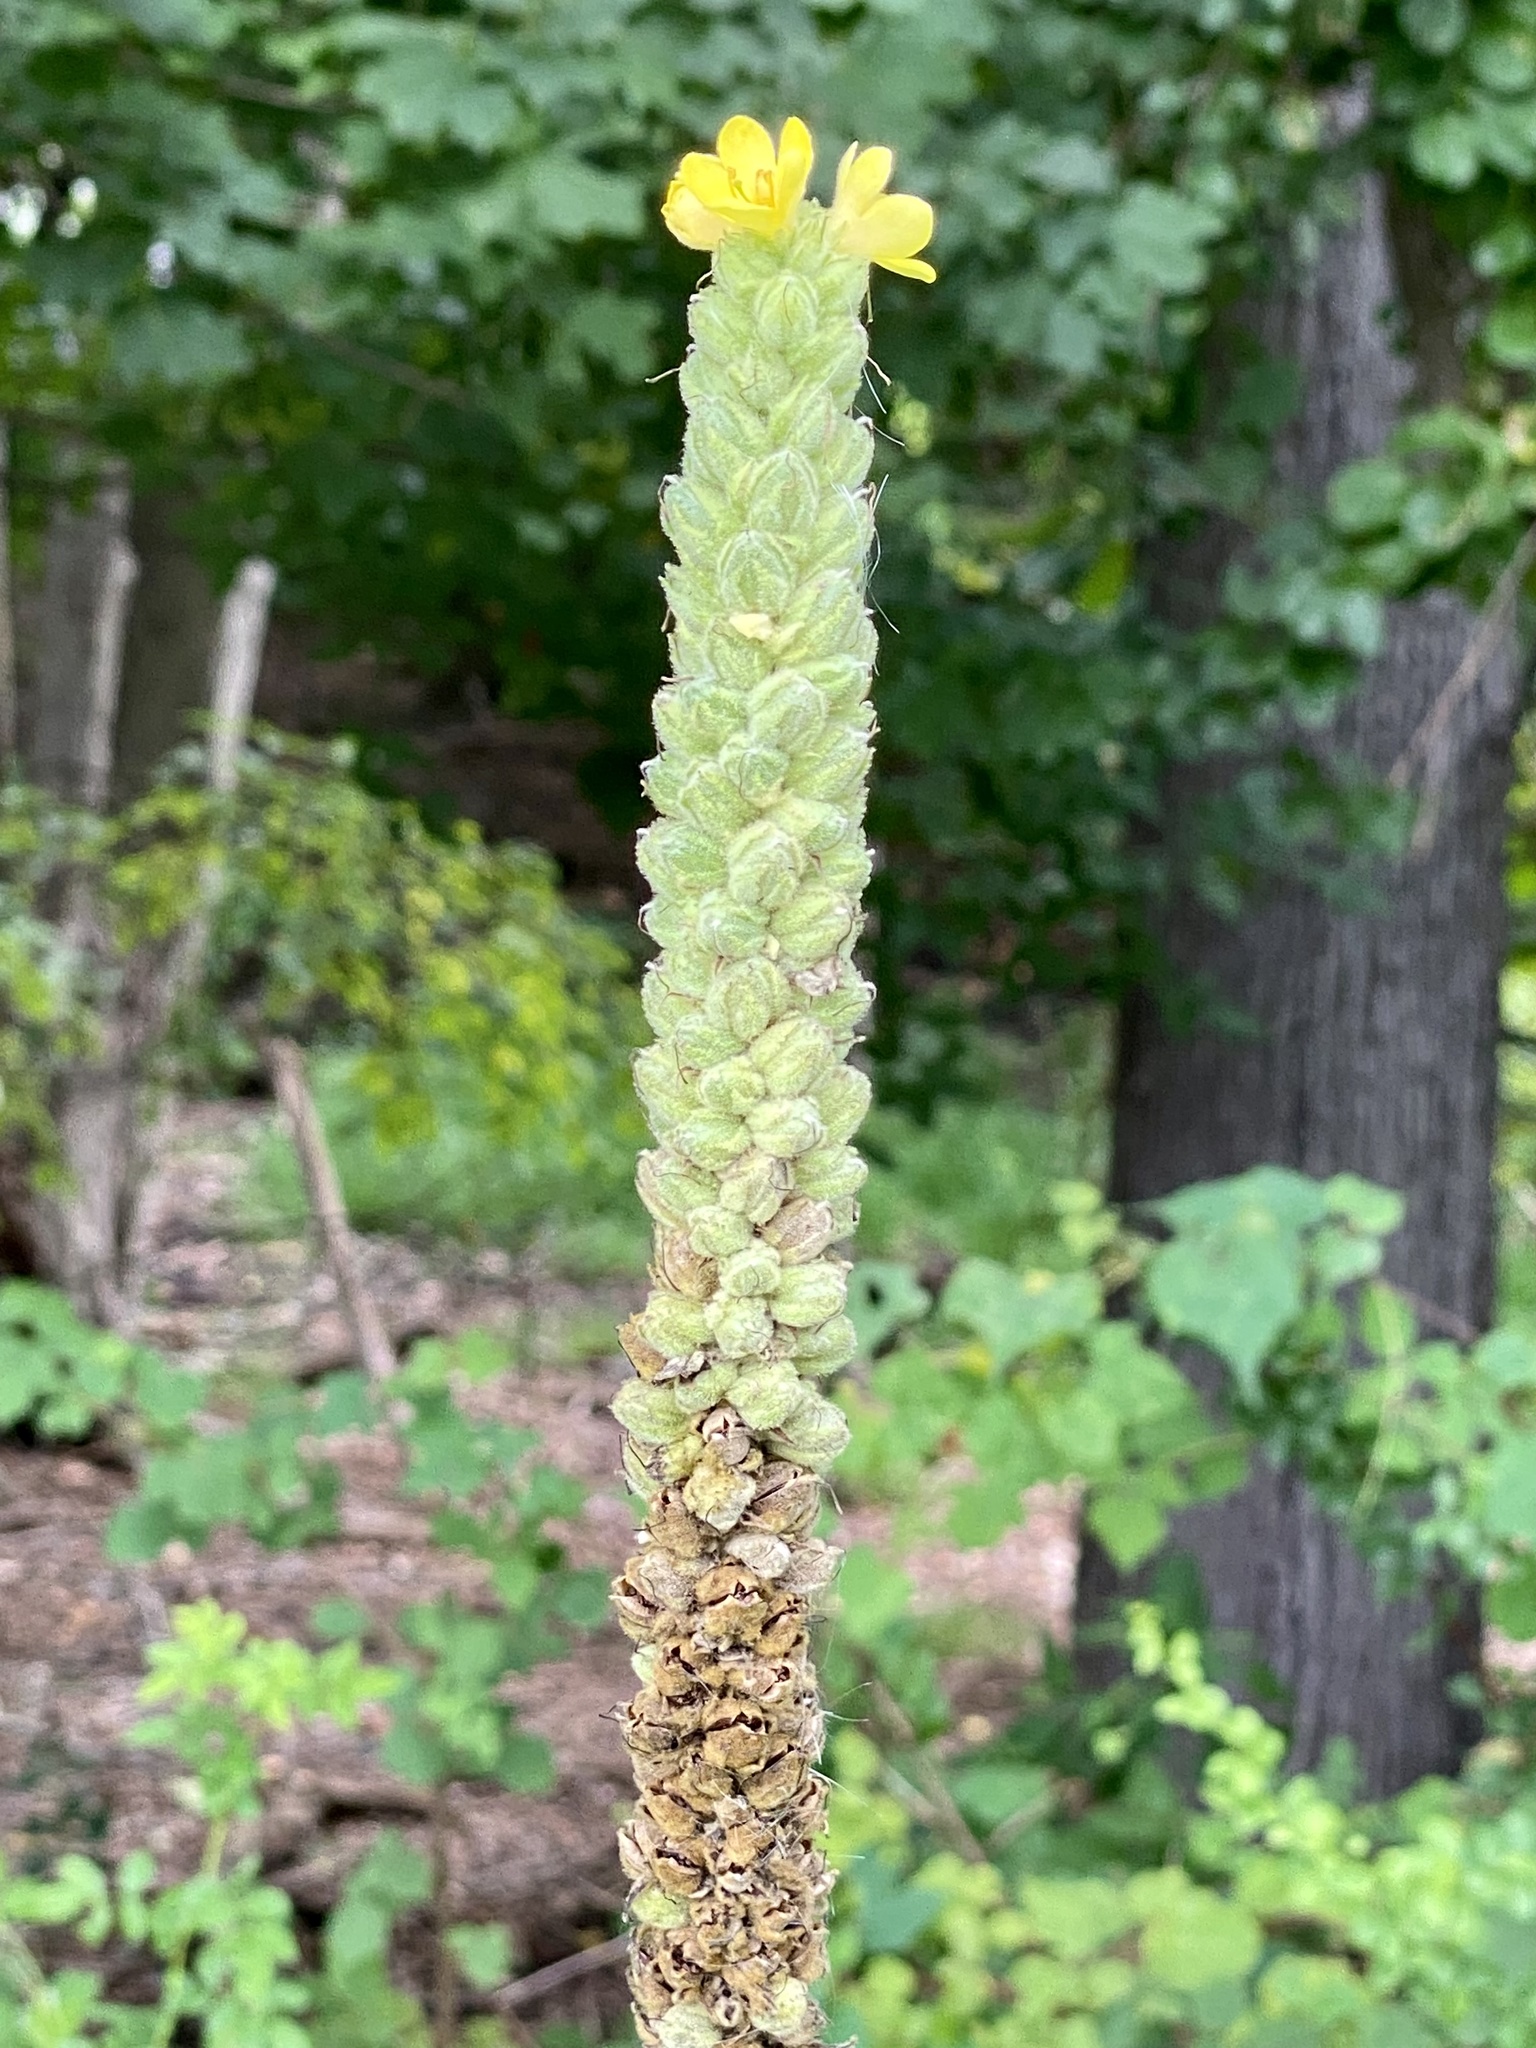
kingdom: Plantae
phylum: Tracheophyta
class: Magnoliopsida
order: Lamiales
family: Scrophulariaceae
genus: Verbascum
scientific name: Verbascum thapsus
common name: Common mullein
